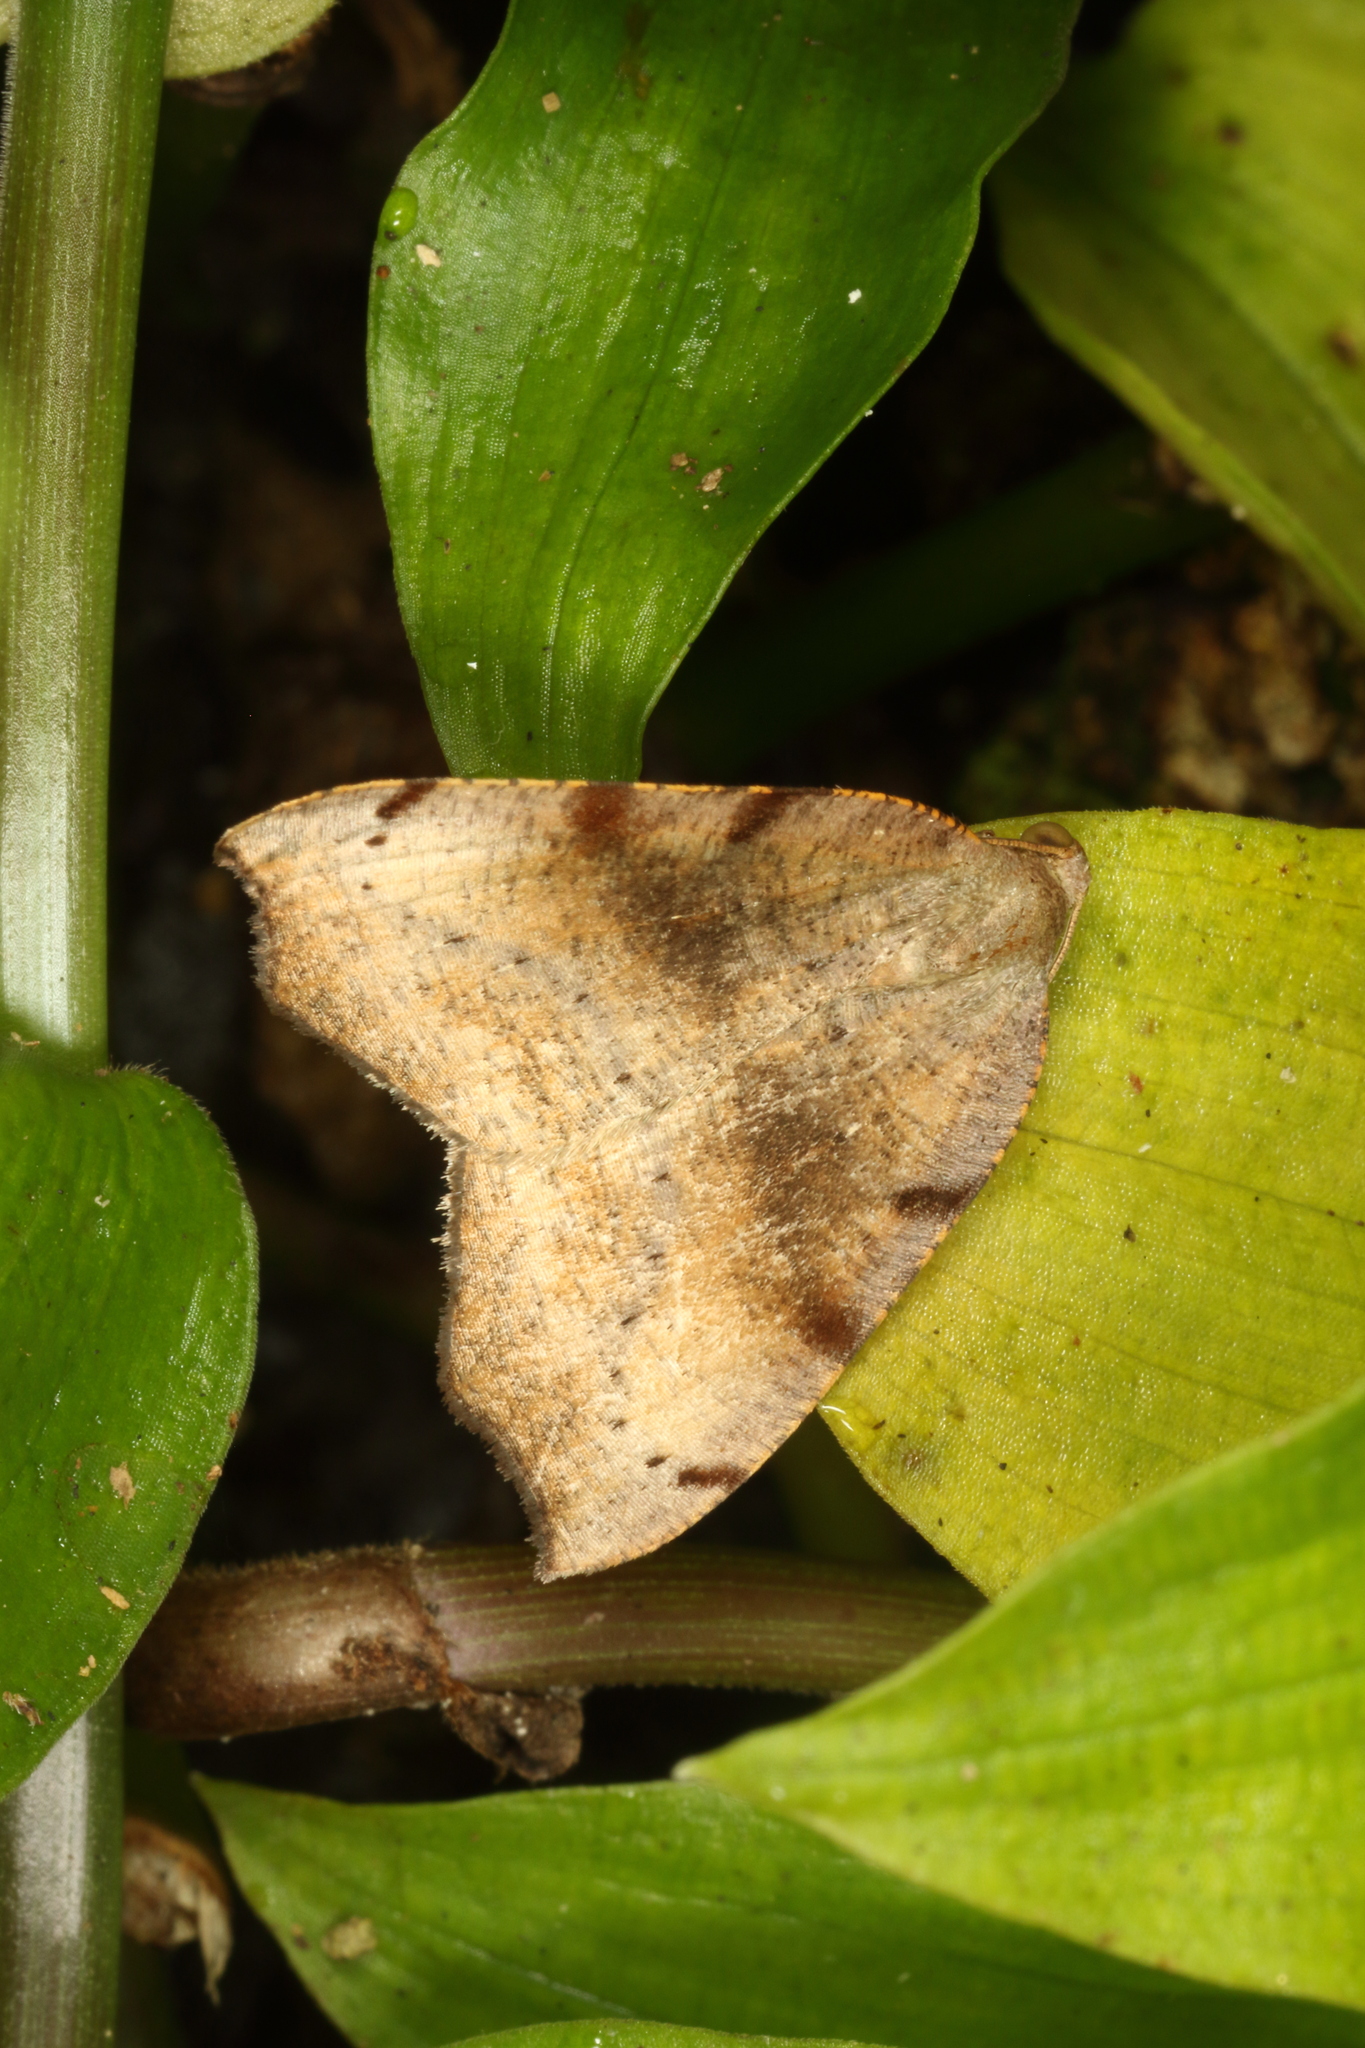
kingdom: Animalia
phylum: Arthropoda
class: Insecta
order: Lepidoptera
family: Geometridae
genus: Sestra
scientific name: Sestra flexata
